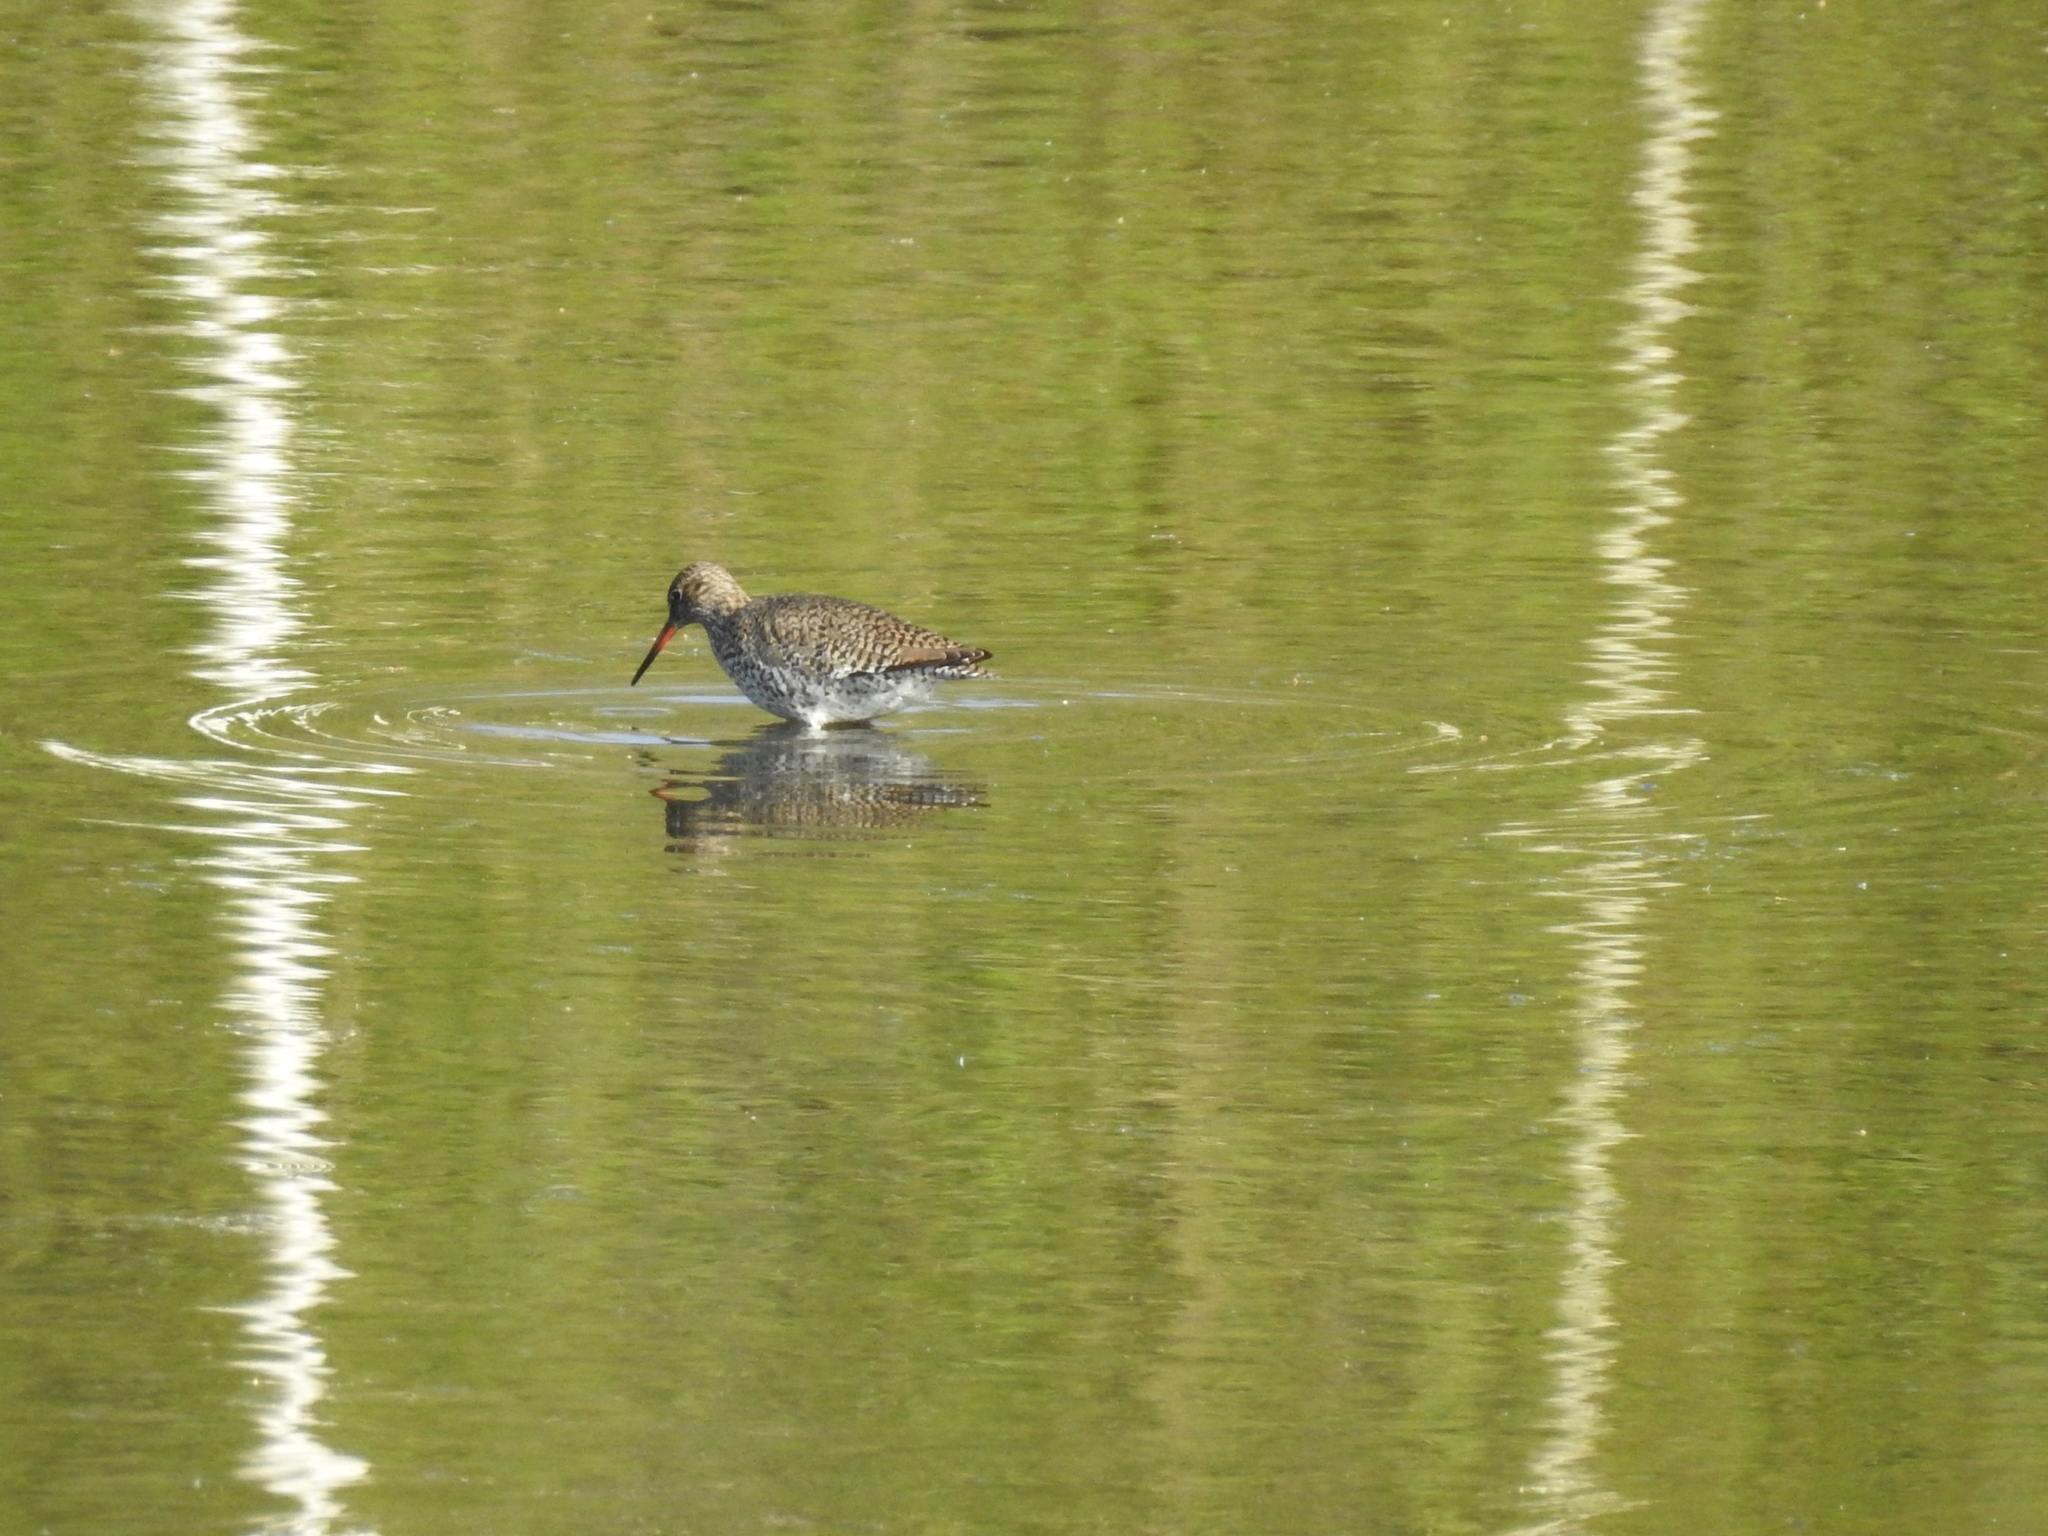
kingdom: Animalia
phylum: Chordata
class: Aves
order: Charadriiformes
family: Scolopacidae
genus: Tringa
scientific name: Tringa totanus
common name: Common redshank
